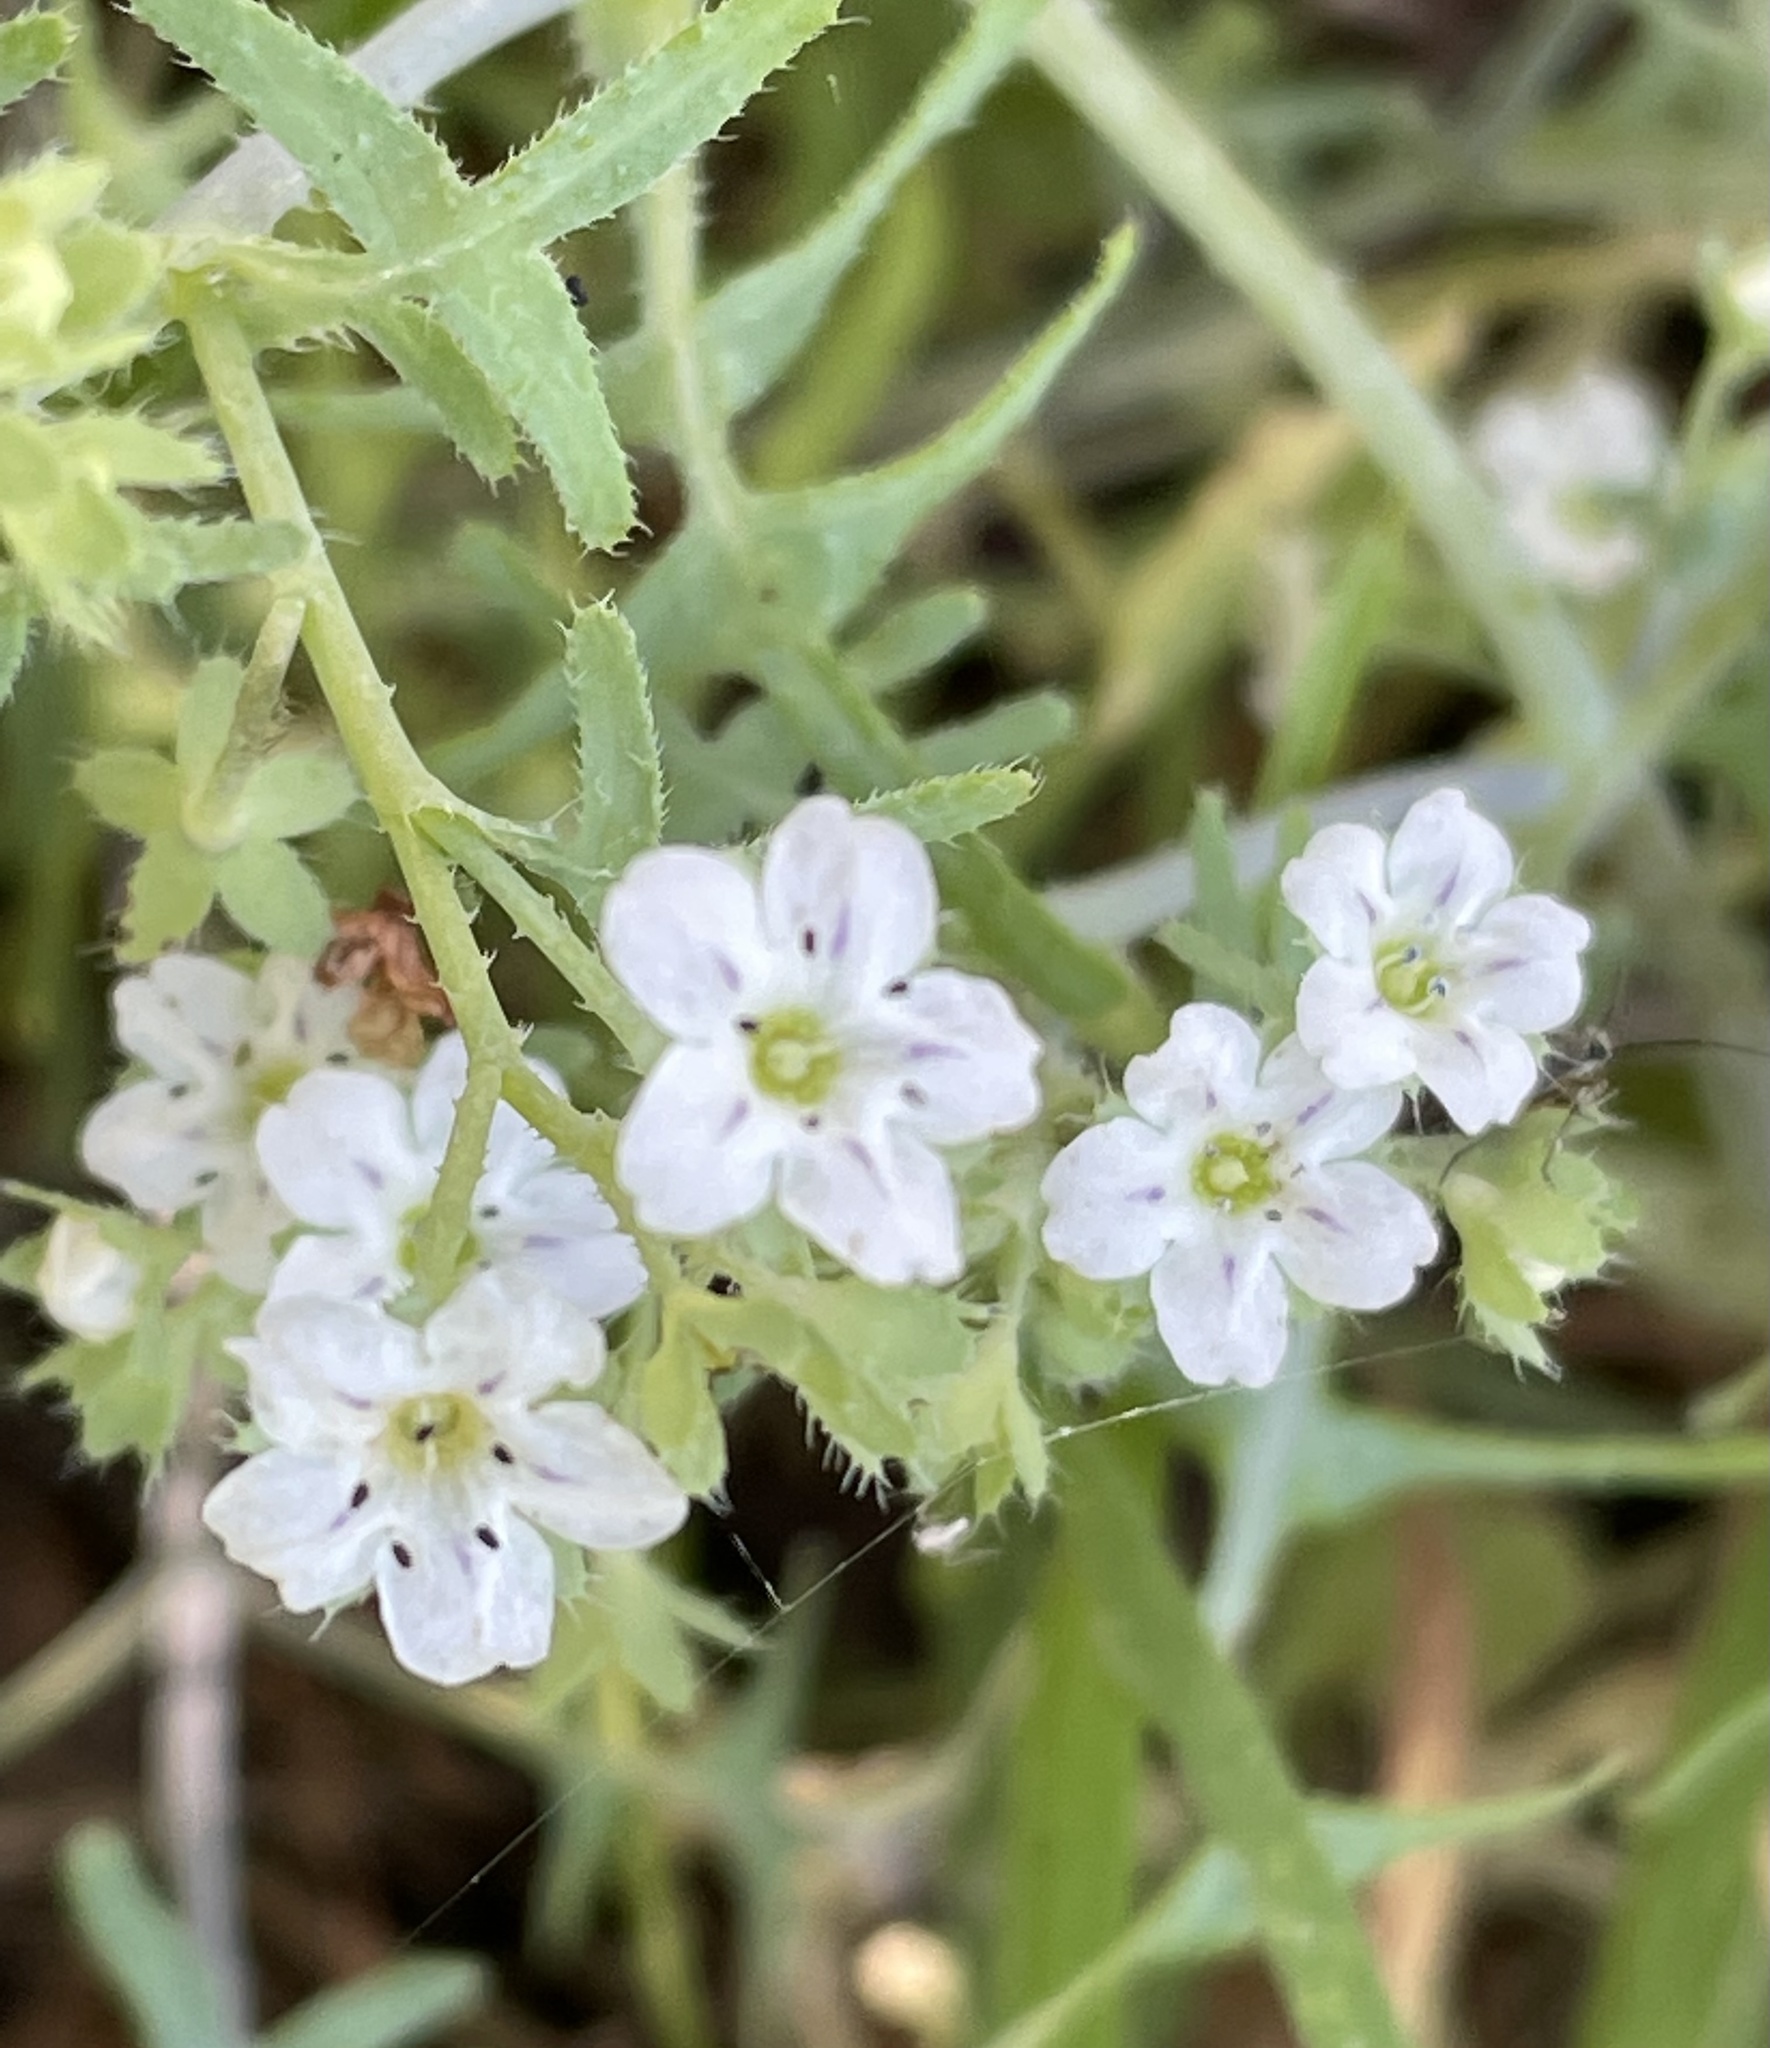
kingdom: Plantae
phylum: Tracheophyta
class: Magnoliopsida
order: Boraginales
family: Hydrophyllaceae
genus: Pholistoma
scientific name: Pholistoma membranaceum
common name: White fiesta-flower
